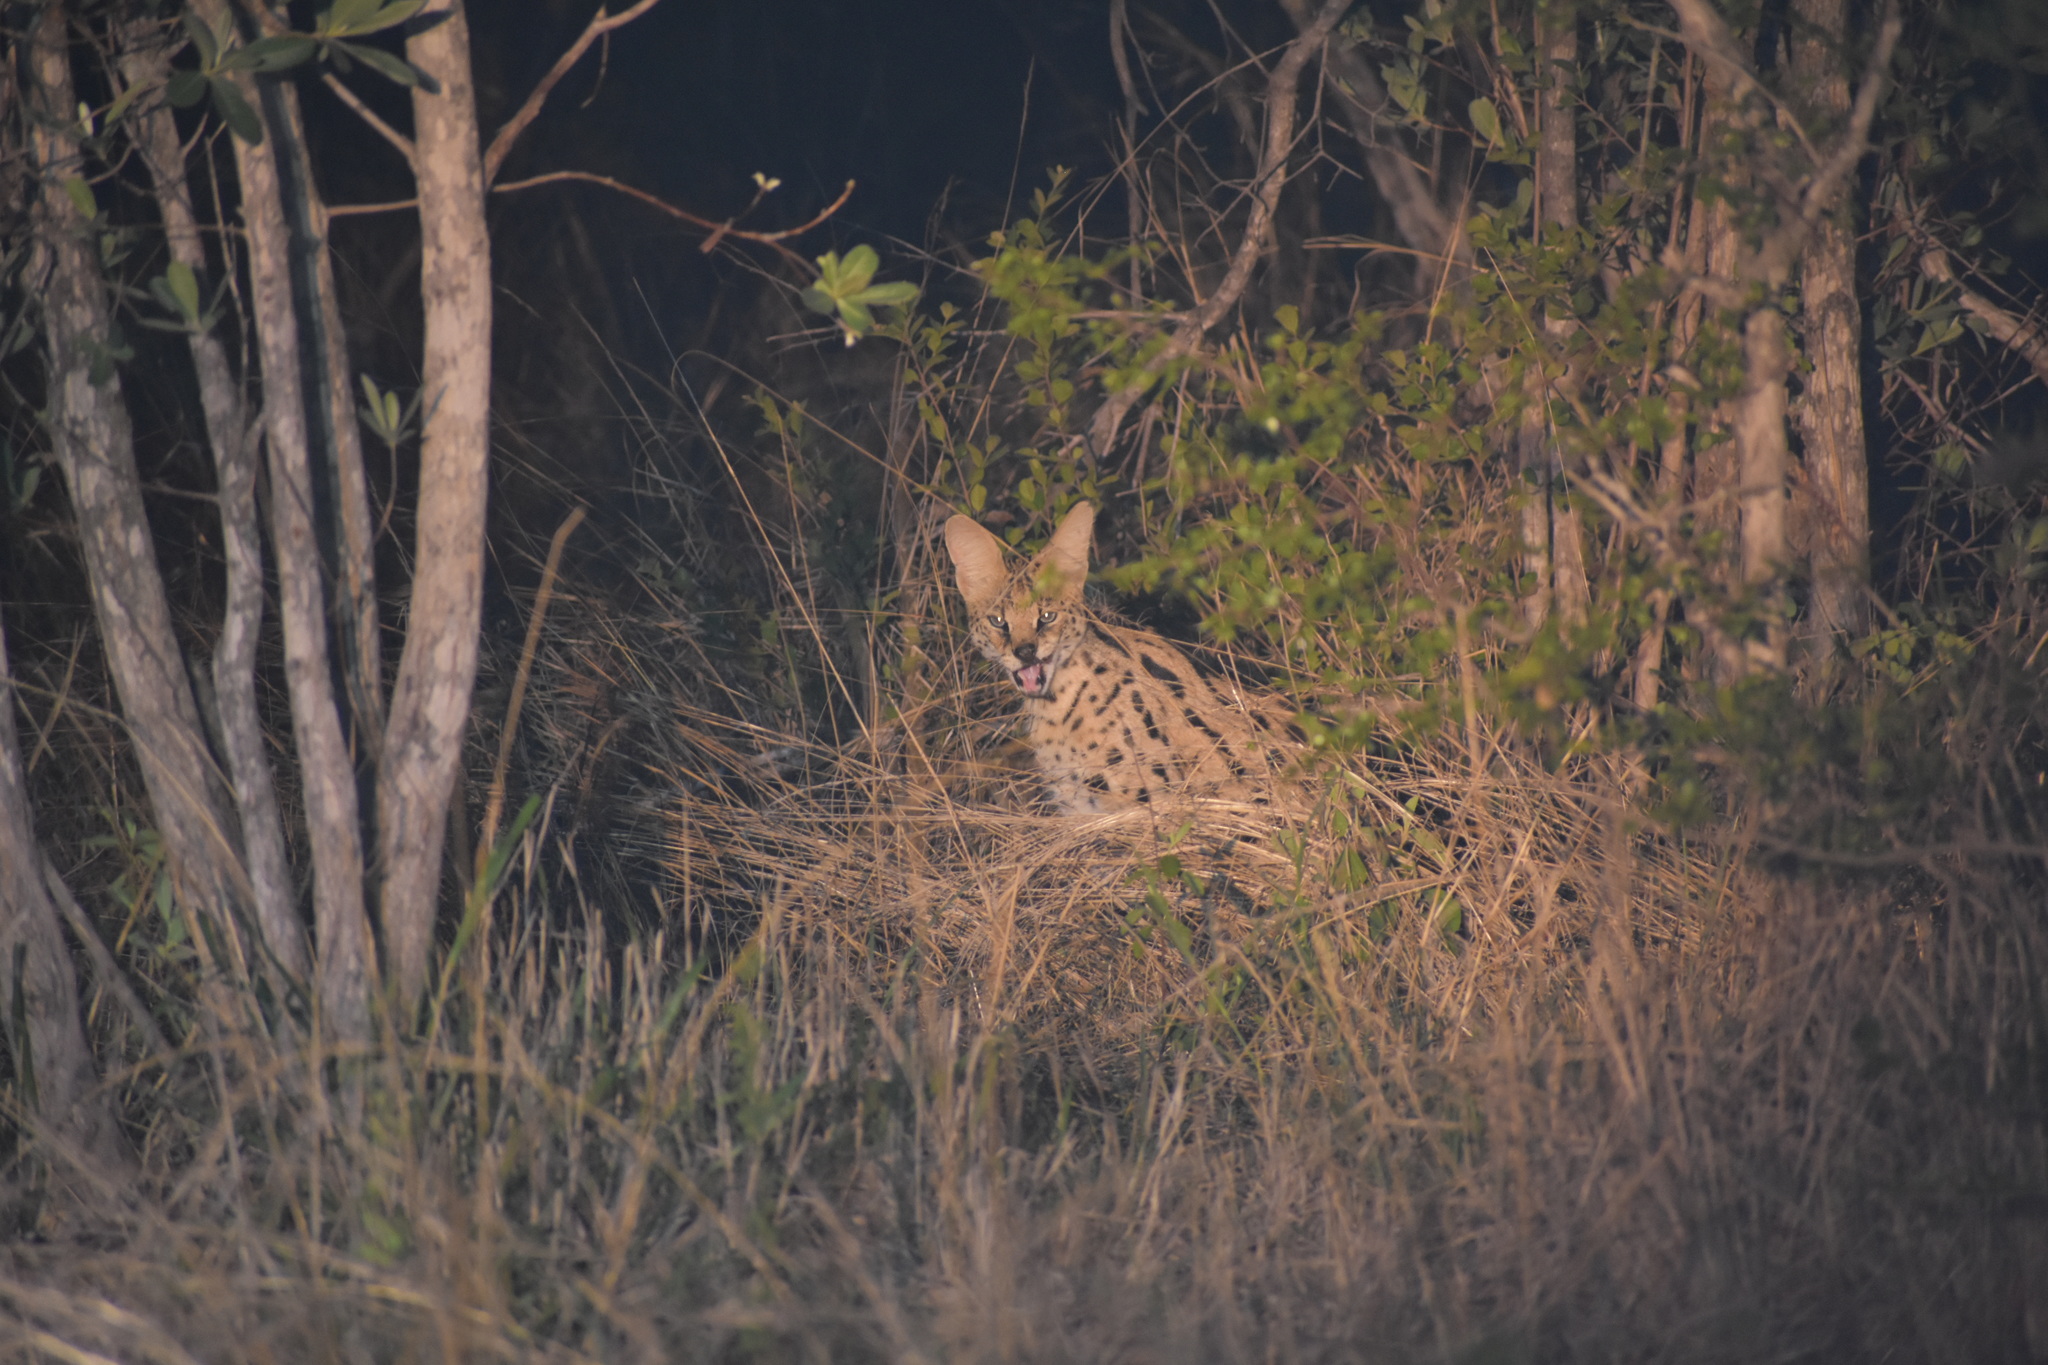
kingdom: Animalia
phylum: Chordata
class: Mammalia
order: Carnivora
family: Felidae
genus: Leptailurus
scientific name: Leptailurus serval
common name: Serval
